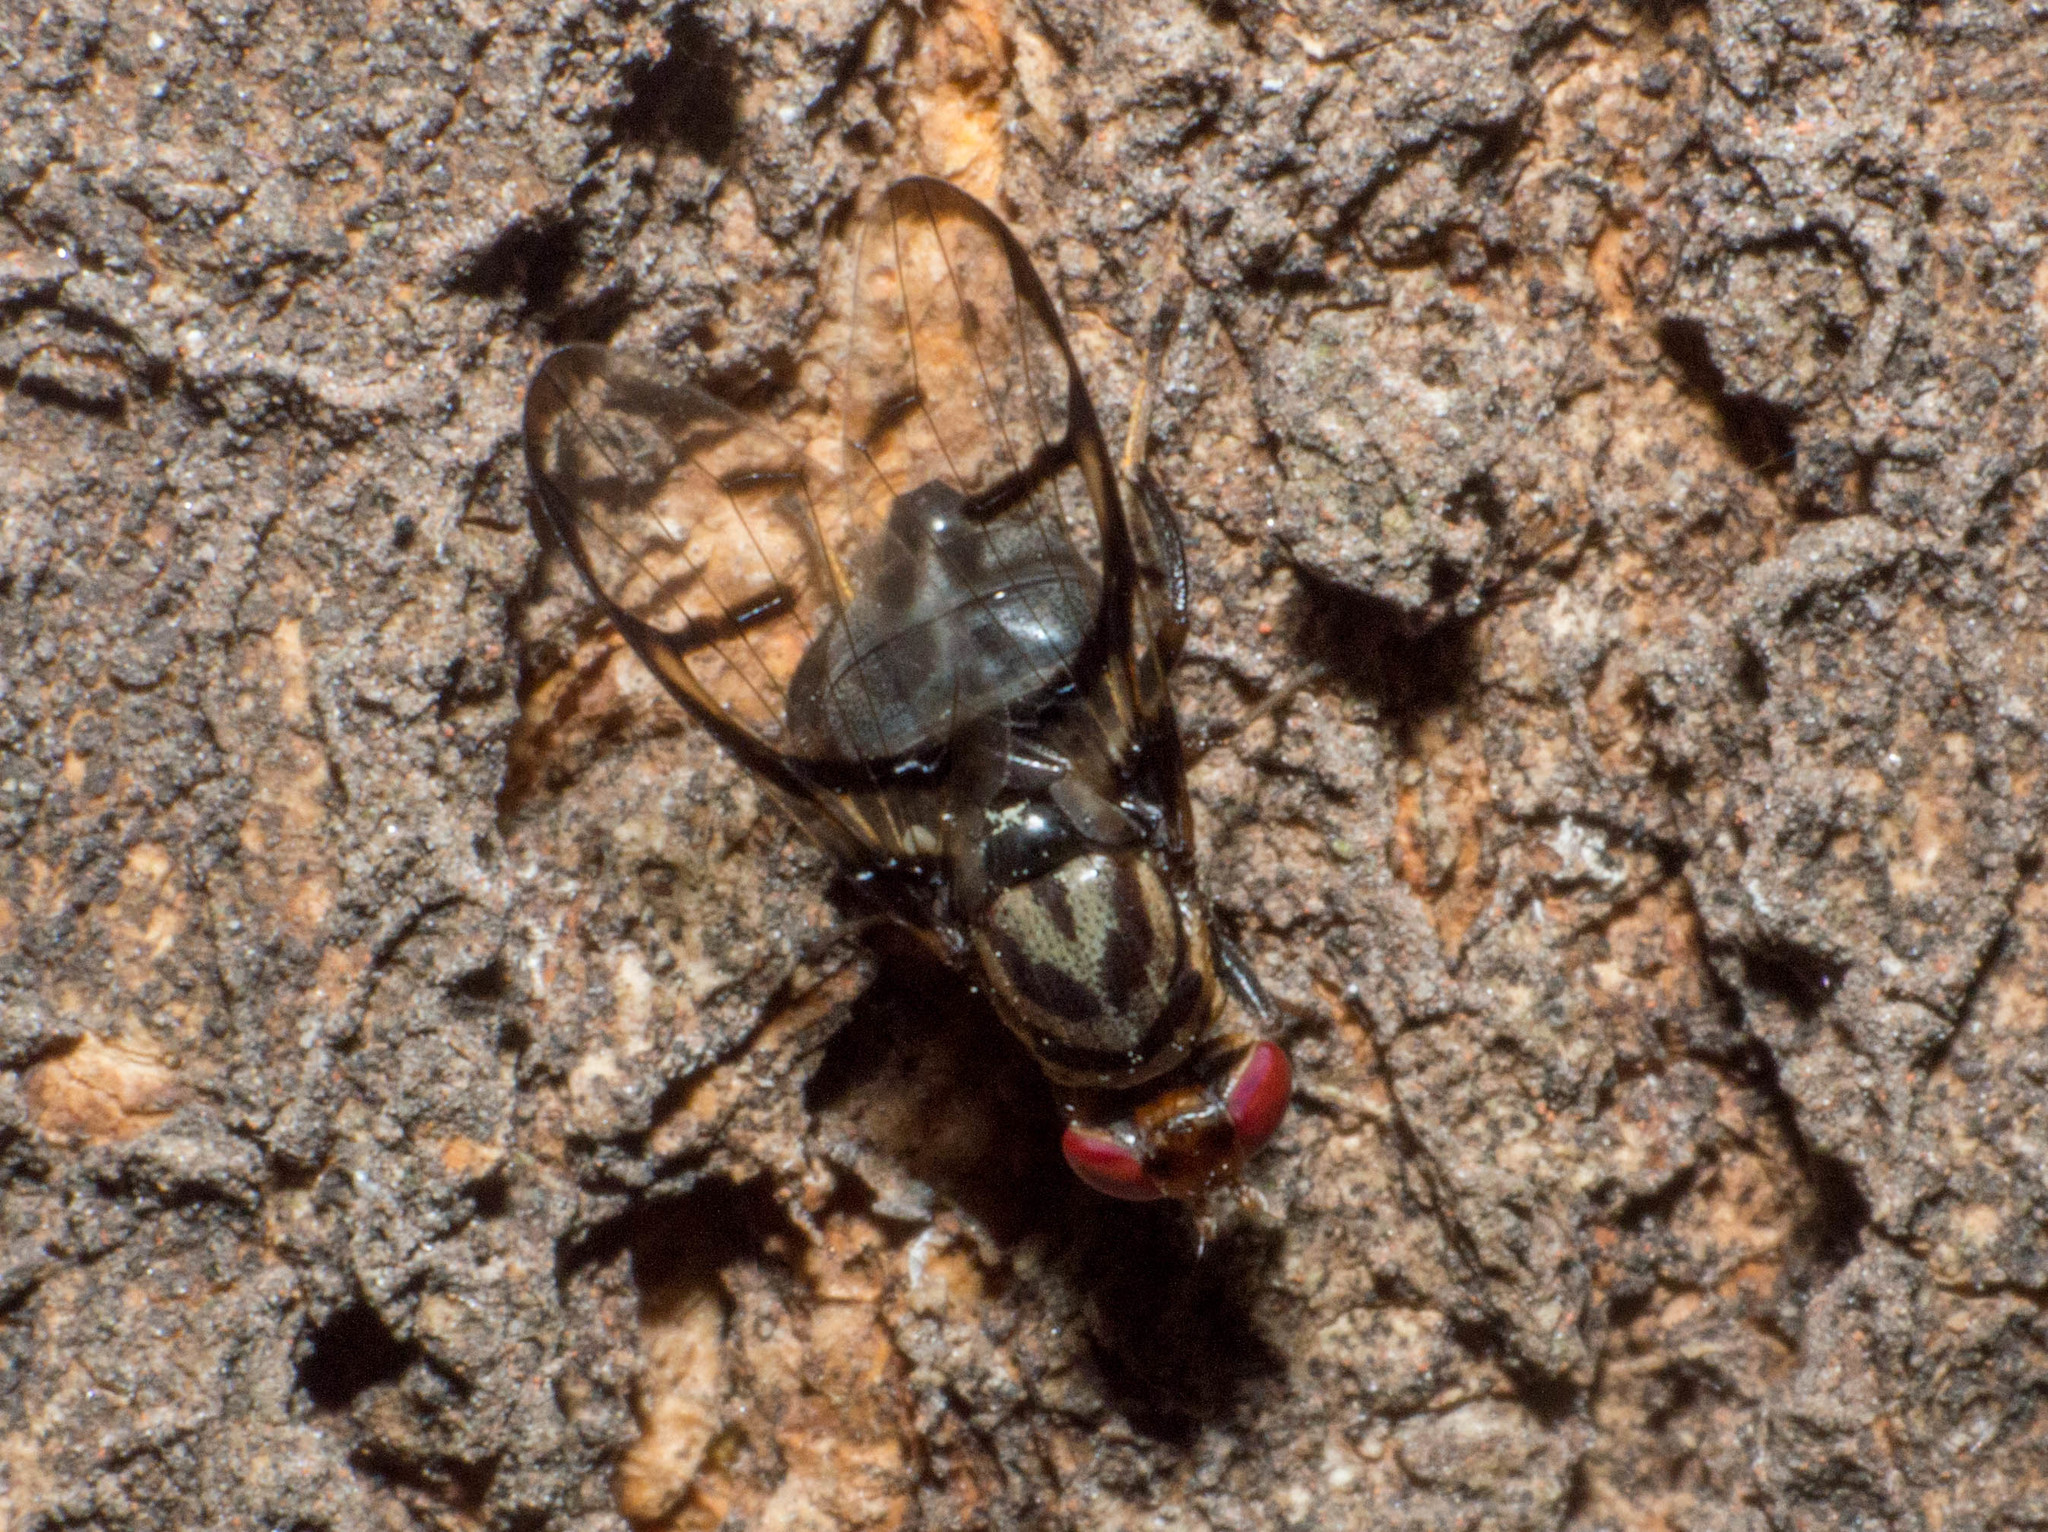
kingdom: Animalia
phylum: Arthropoda
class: Insecta
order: Diptera
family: Ulidiidae
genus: Neomyennis
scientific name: Neomyennis zebra
